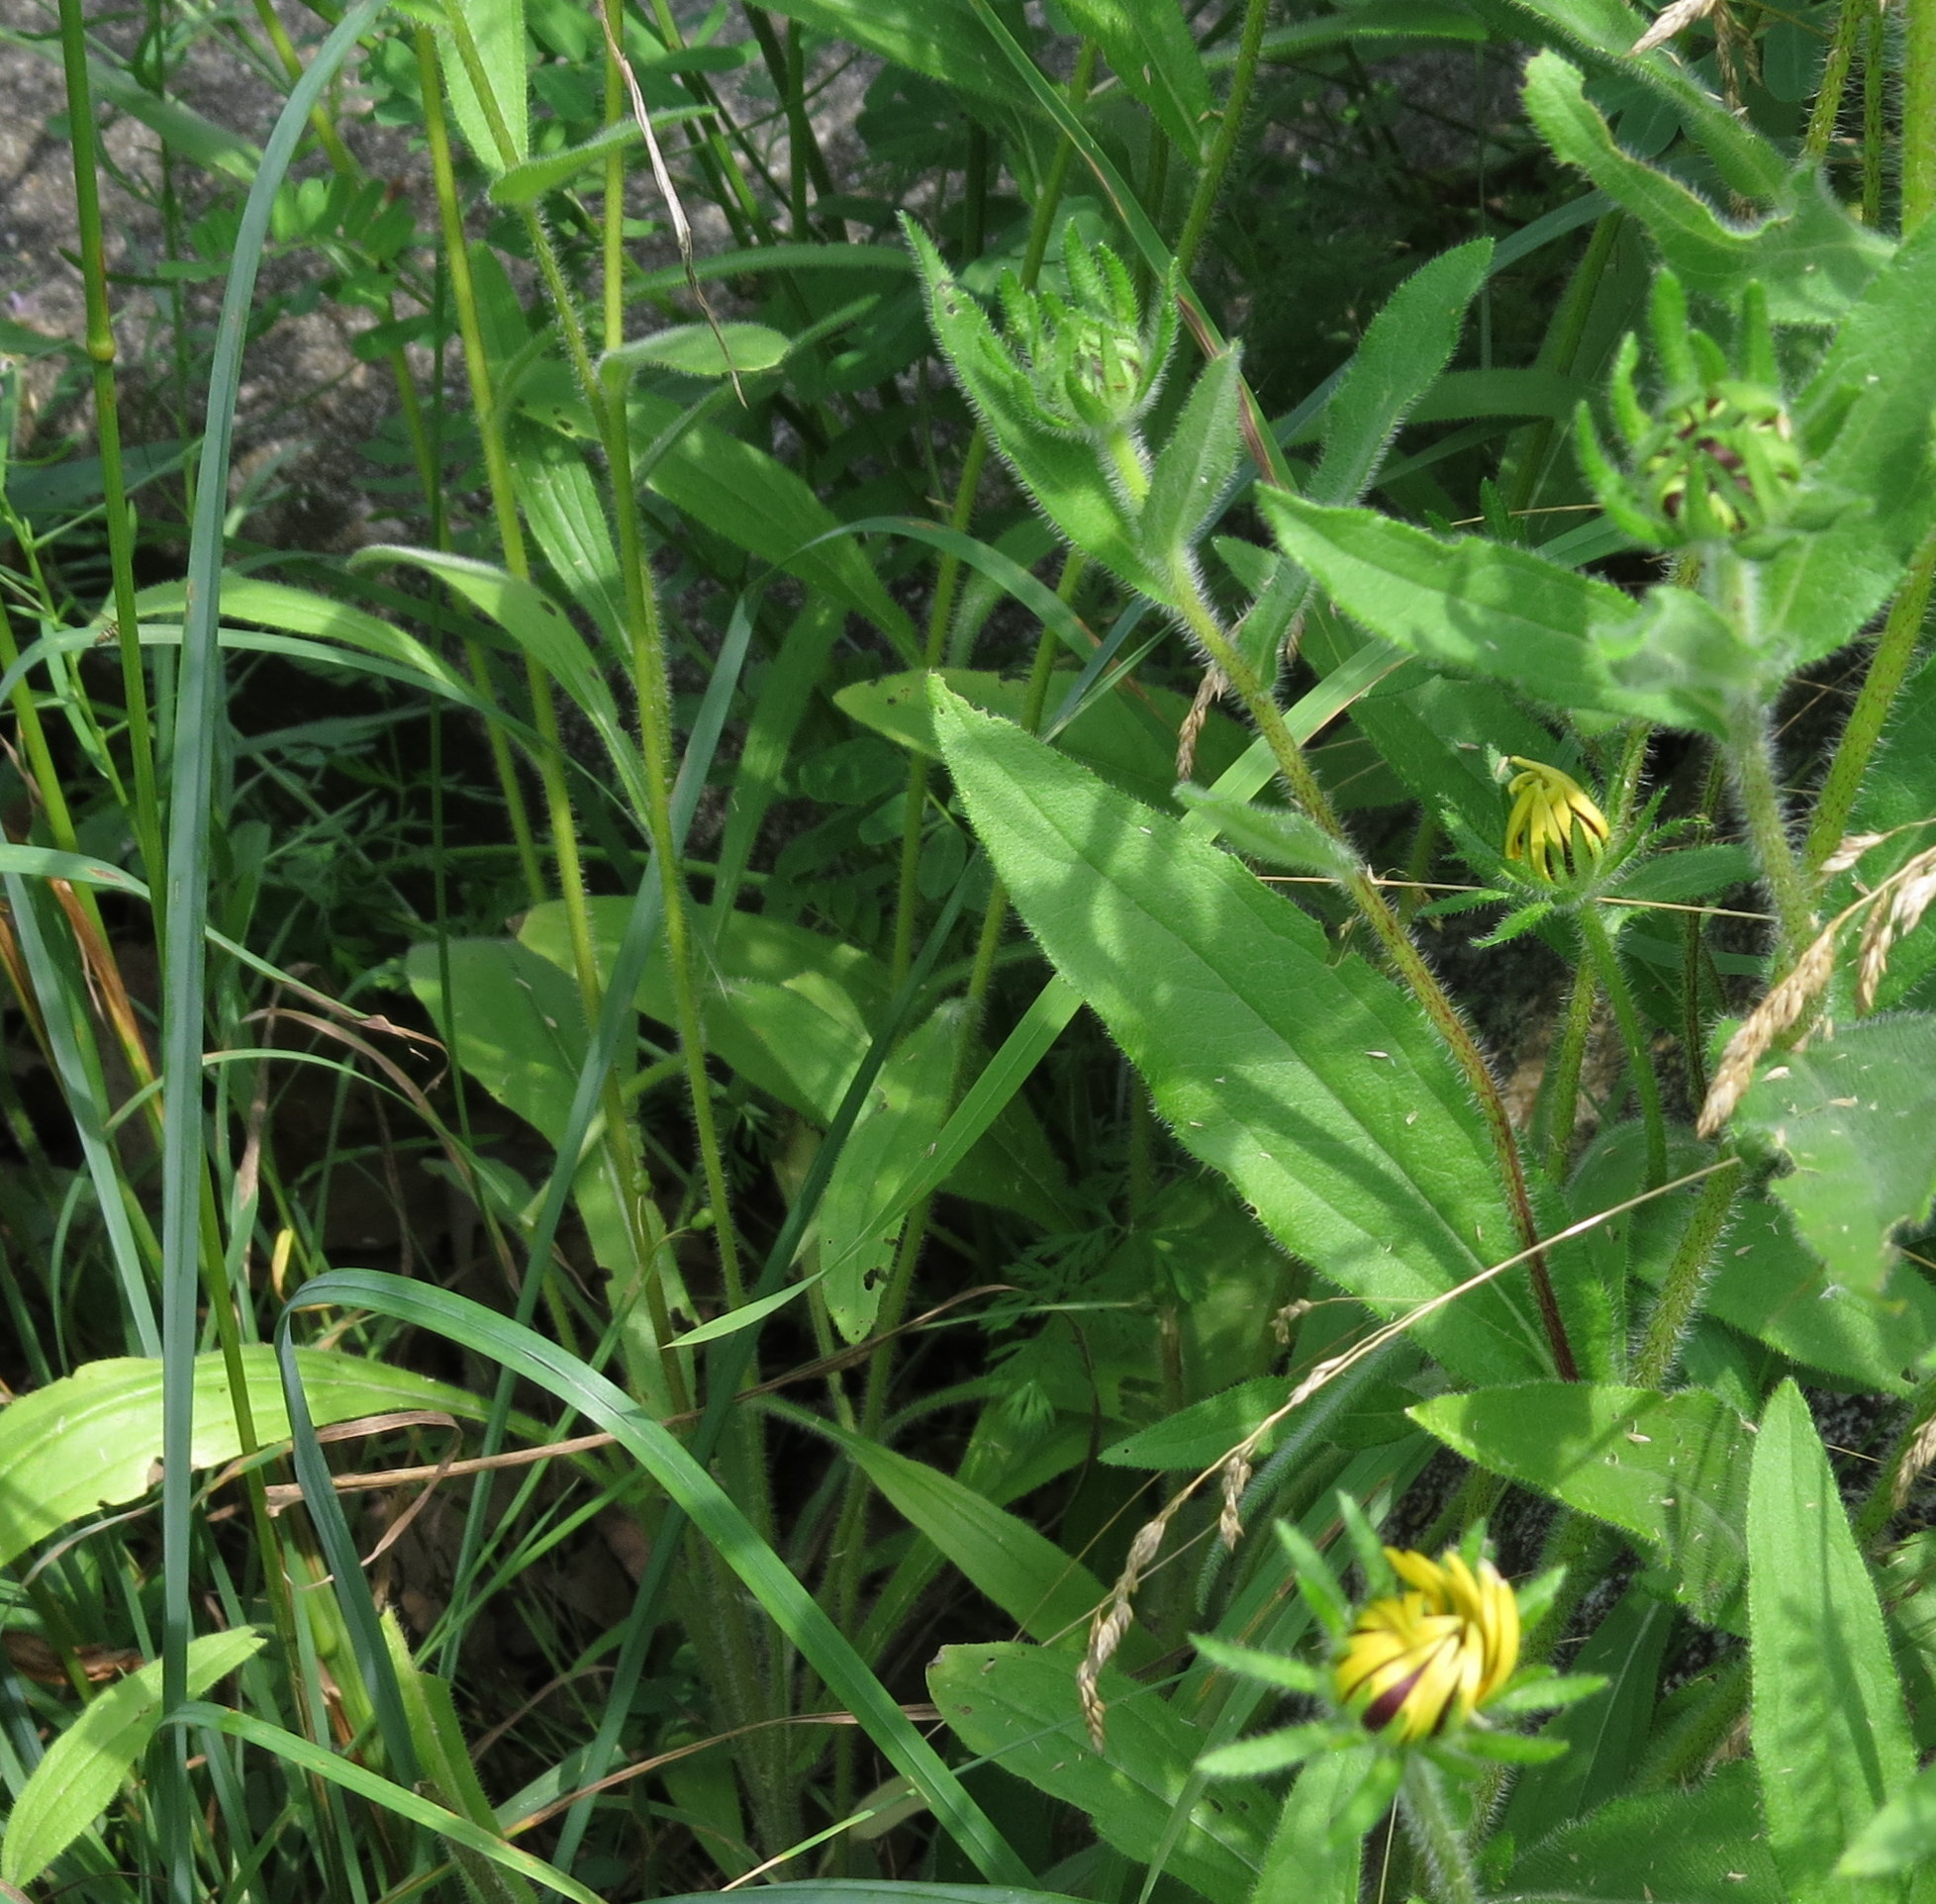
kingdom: Plantae
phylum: Tracheophyta
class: Magnoliopsida
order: Asterales
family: Asteraceae
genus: Rudbeckia
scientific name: Rudbeckia hirta
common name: Black-eyed-susan
